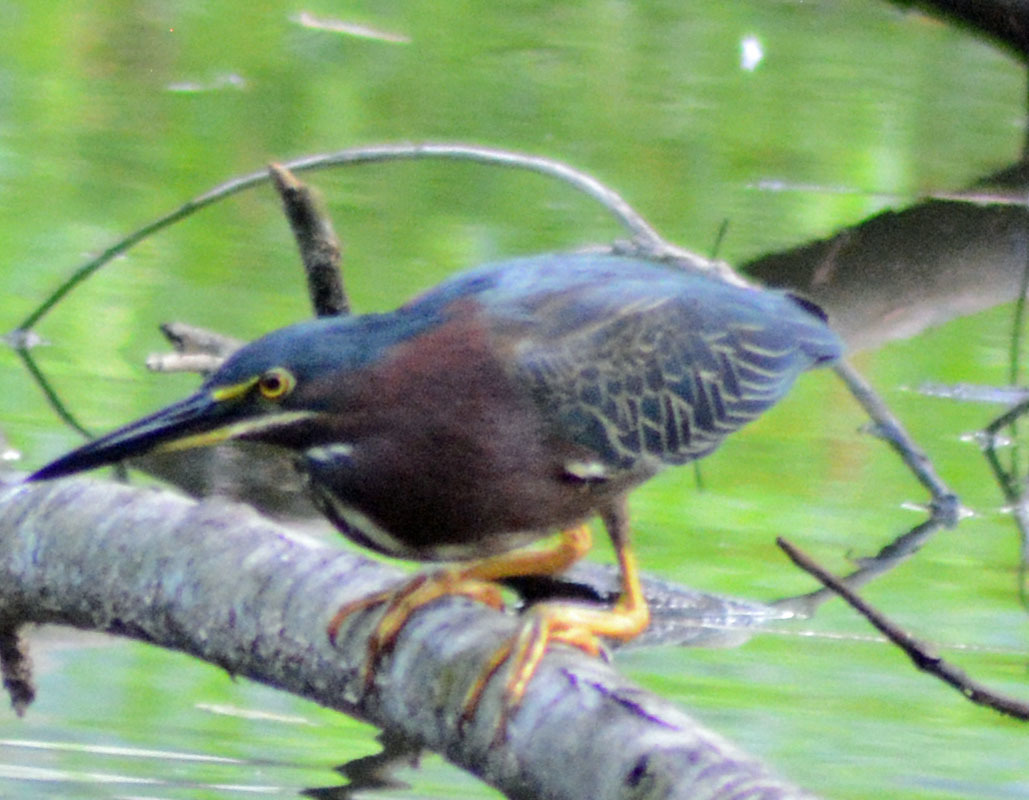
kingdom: Animalia
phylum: Chordata
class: Aves
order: Pelecaniformes
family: Ardeidae
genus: Butorides
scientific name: Butorides virescens
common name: Green heron
